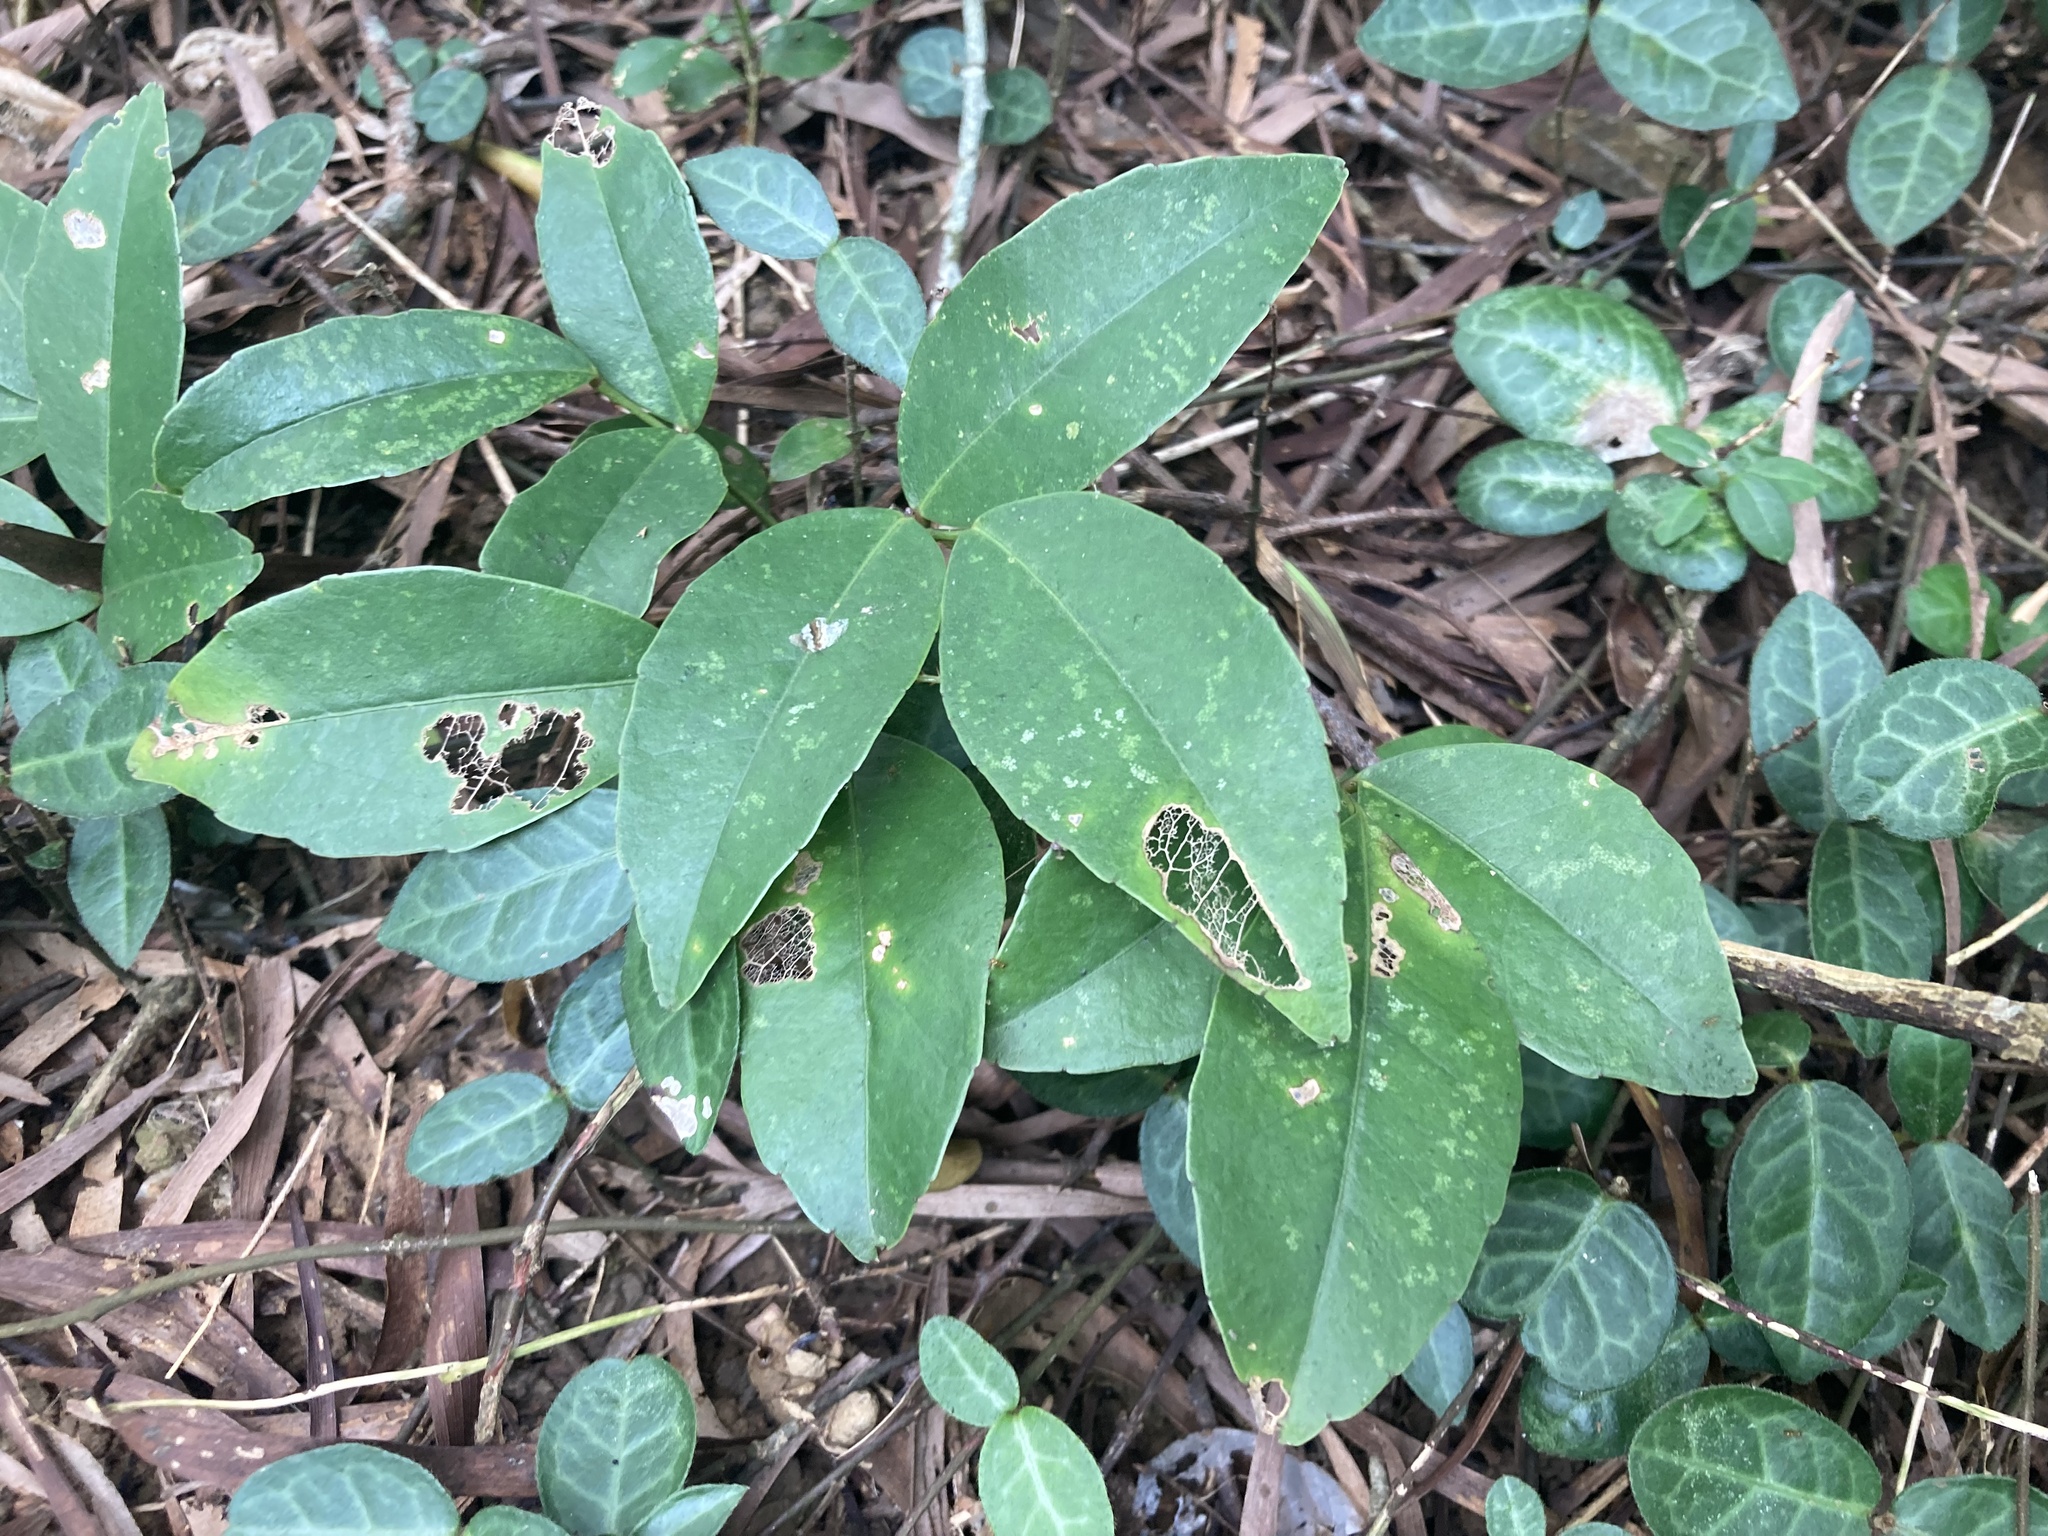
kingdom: Plantae
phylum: Tracheophyta
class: Magnoliopsida
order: Sapindales
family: Rutaceae
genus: Zanthoxylum
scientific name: Zanthoxylum nitidum
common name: Shiny-leaf prickly-ash
